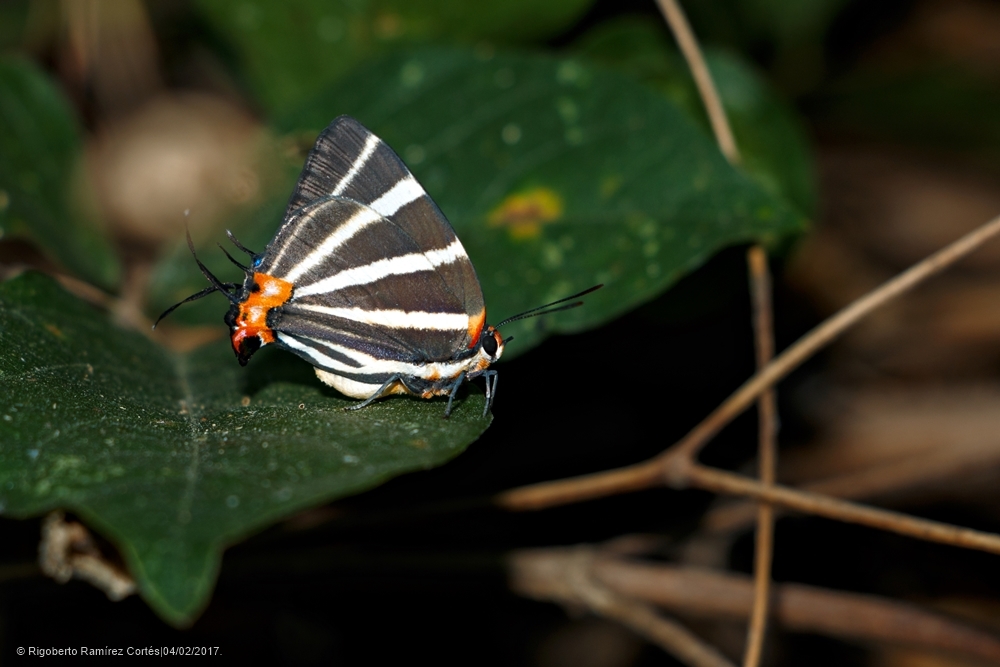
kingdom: Animalia
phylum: Arthropoda
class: Insecta
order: Lepidoptera
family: Lycaenidae
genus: Thecla
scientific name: Thecla bathildis
